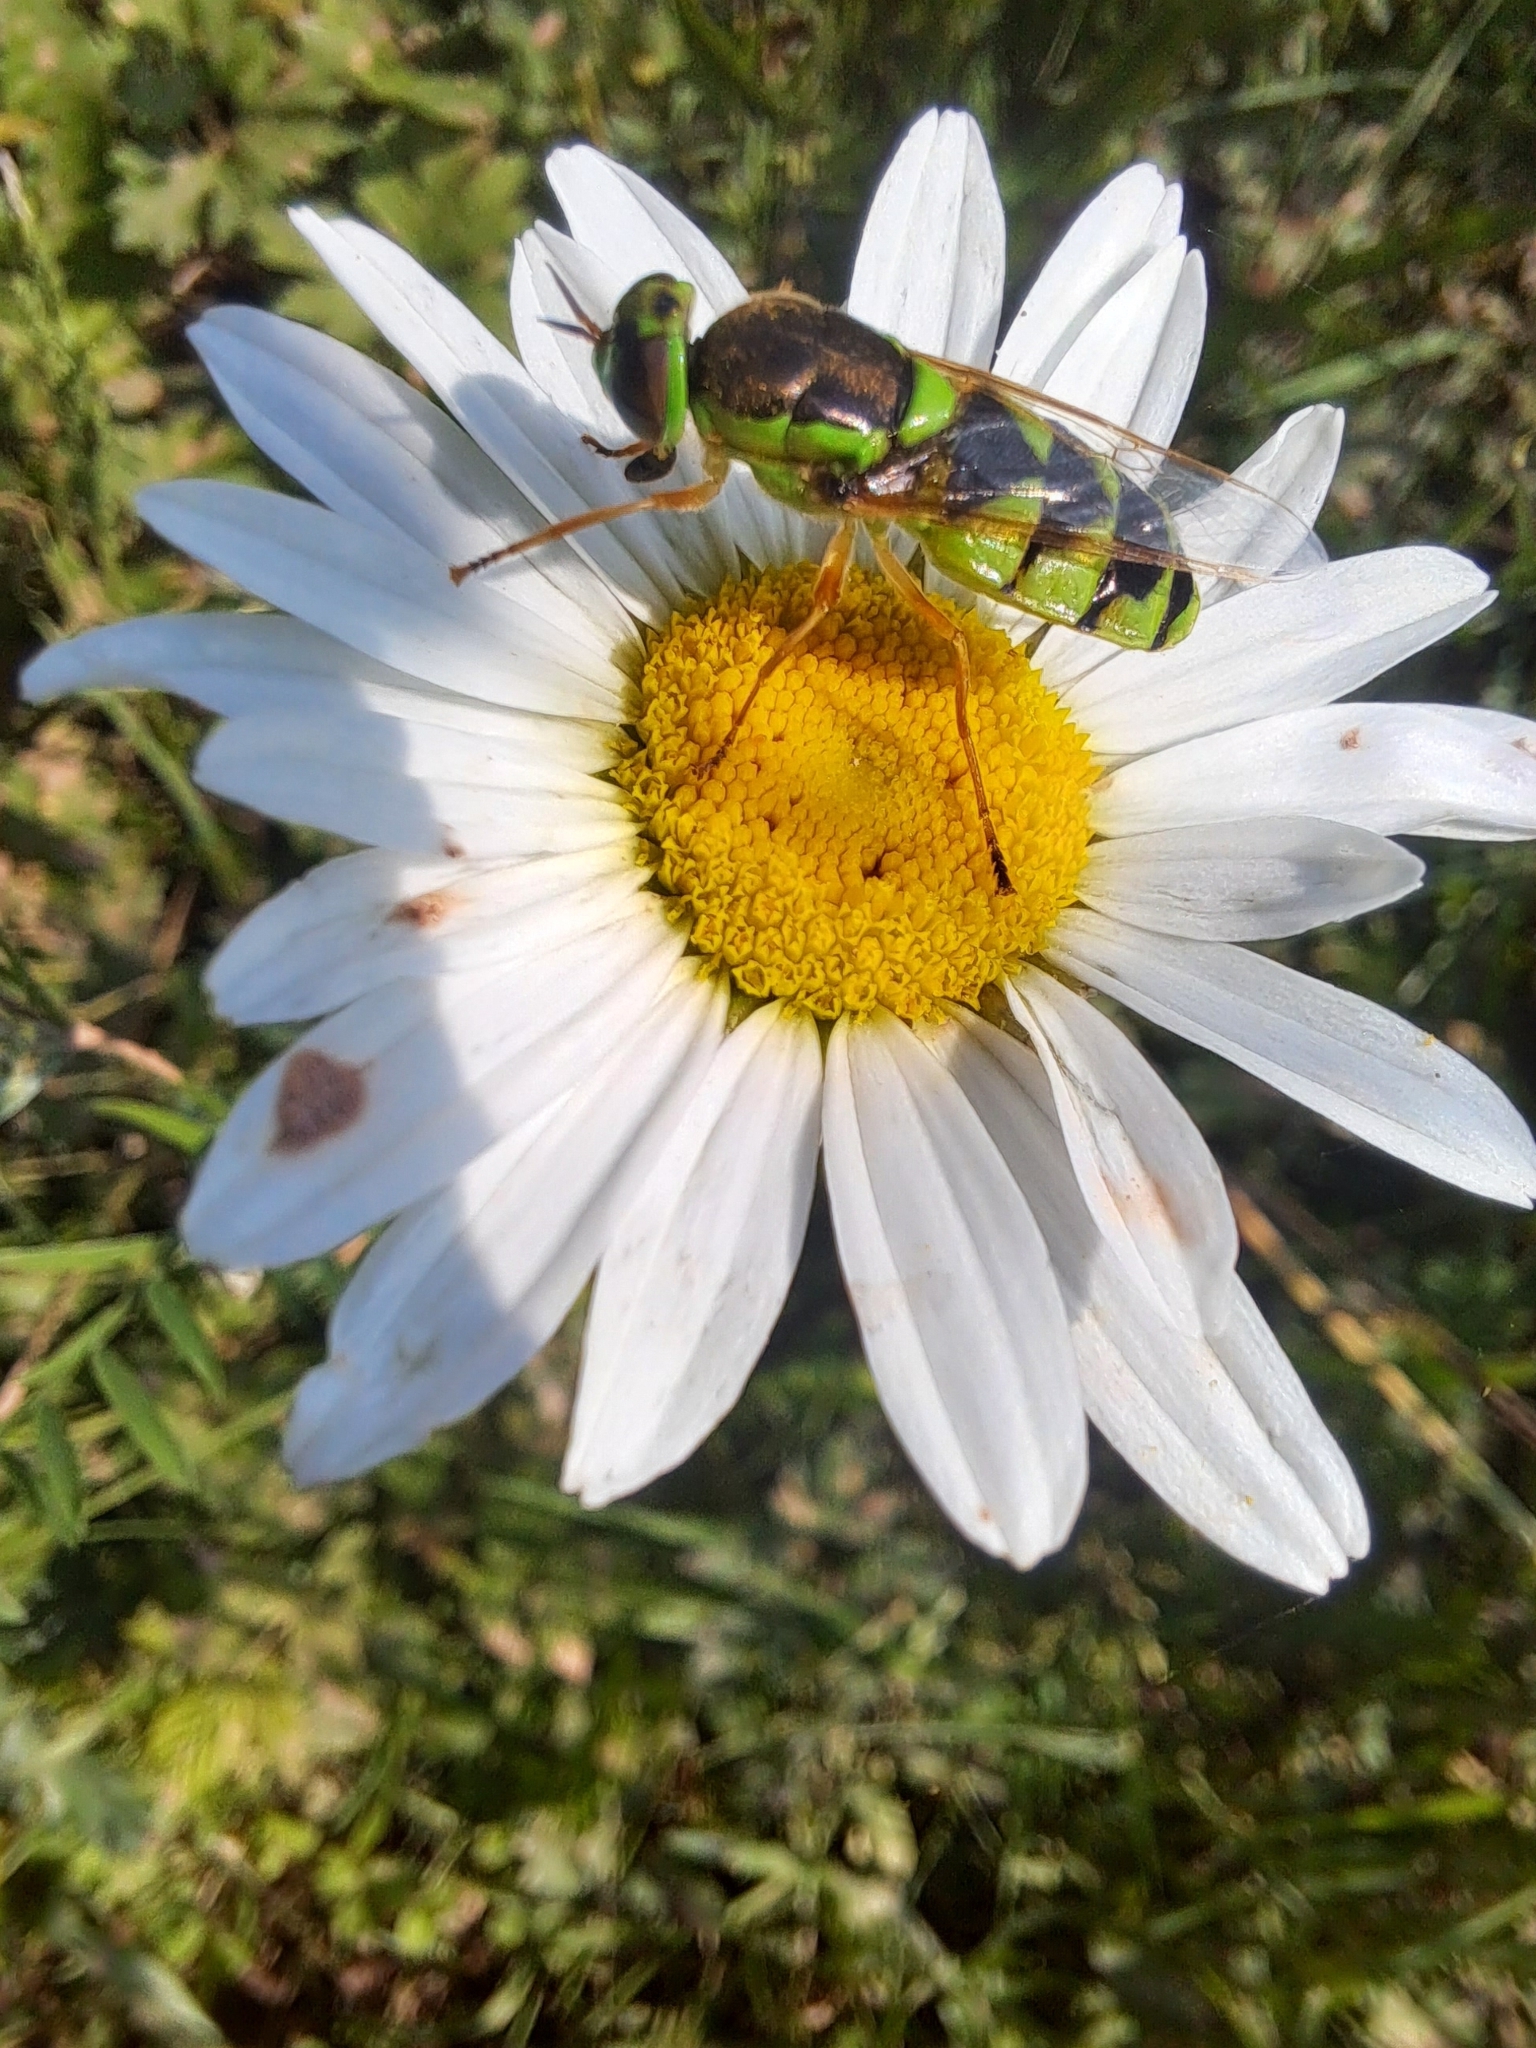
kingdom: Animalia
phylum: Arthropoda
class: Insecta
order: Diptera
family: Stratiomyidae
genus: Odontomyia
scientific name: Odontomyia cincta
